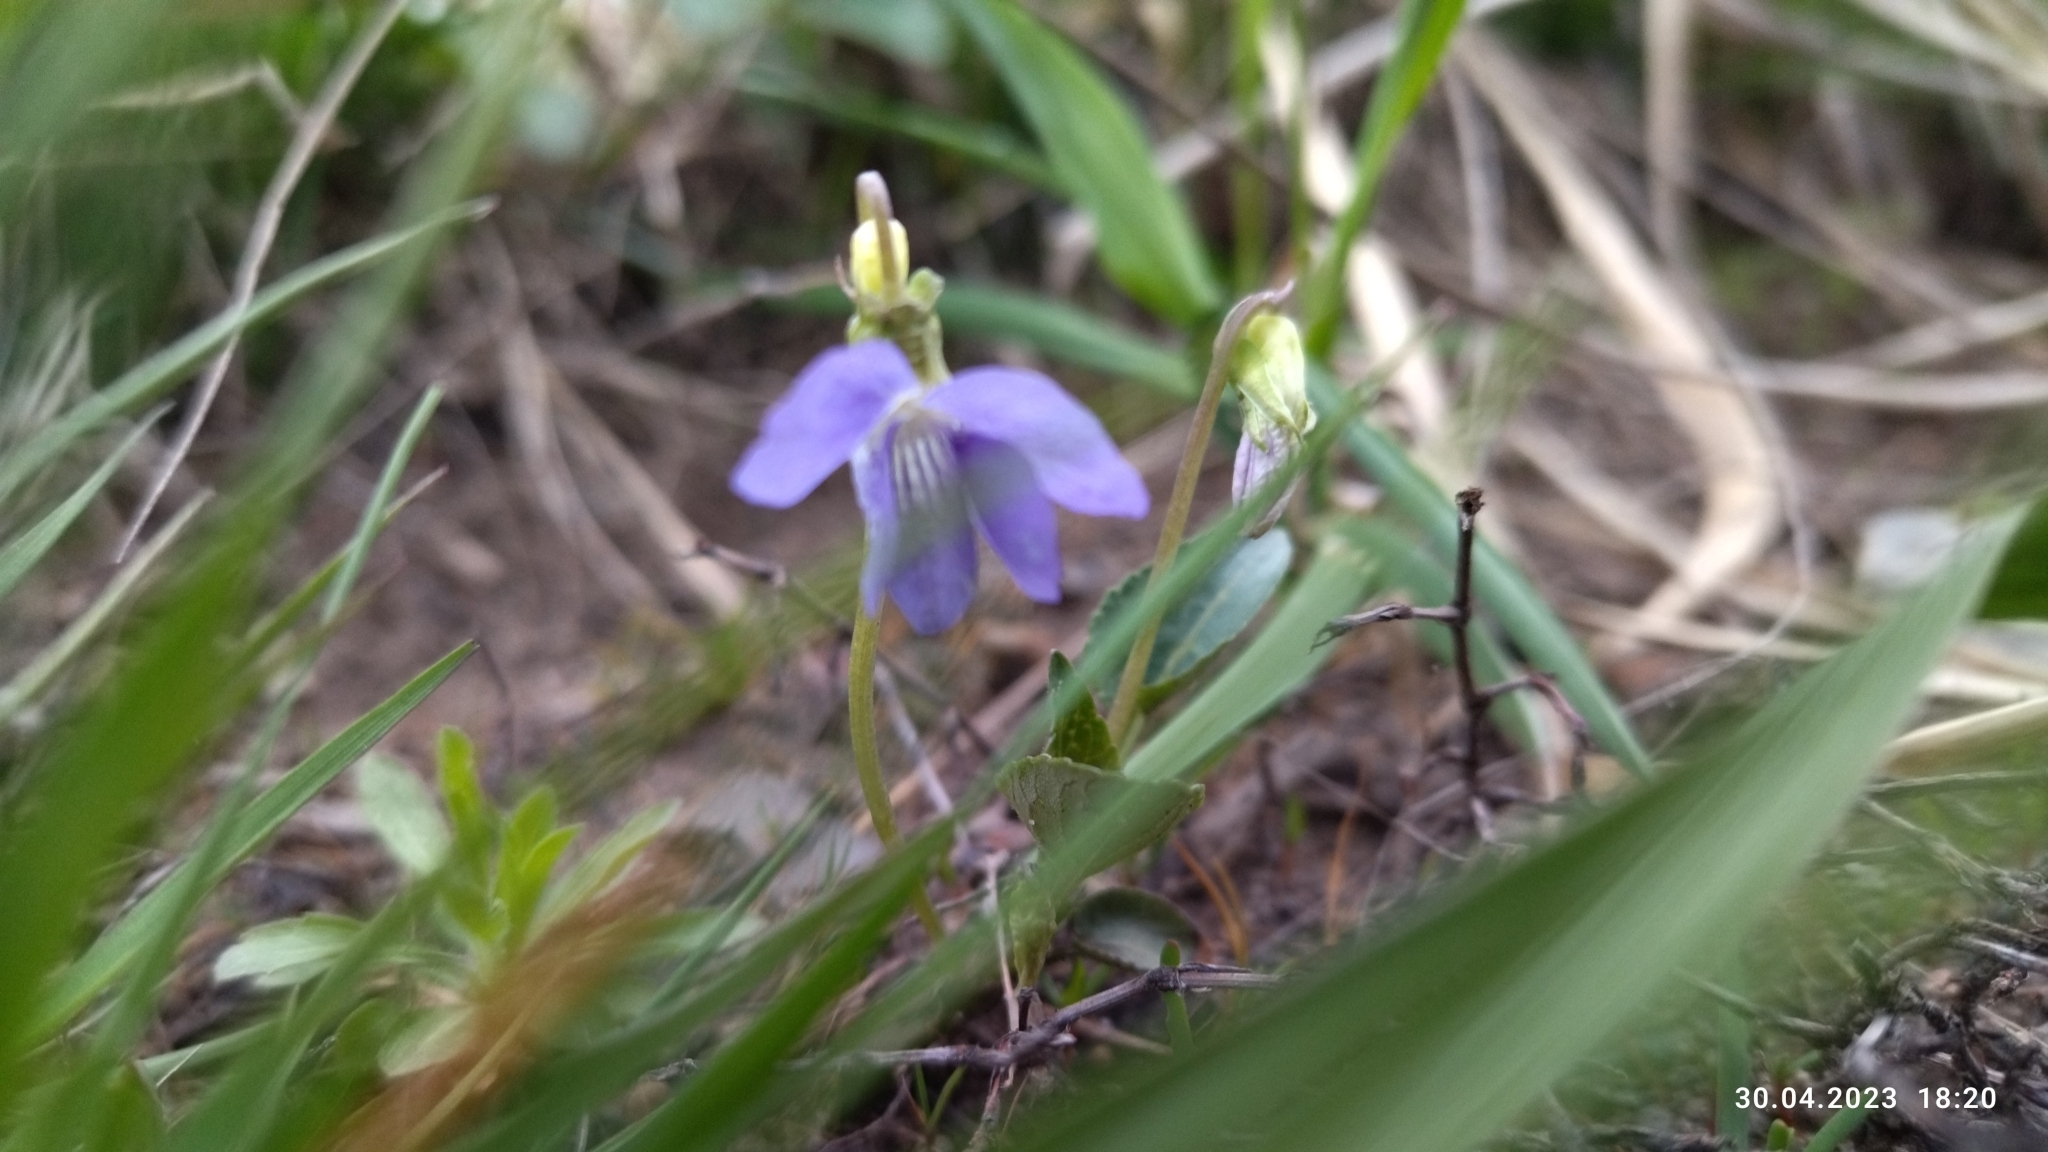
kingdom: Plantae
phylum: Tracheophyta
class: Magnoliopsida
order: Malpighiales
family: Violaceae
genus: Viola
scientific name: Viola canina
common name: Heath dog-violet
